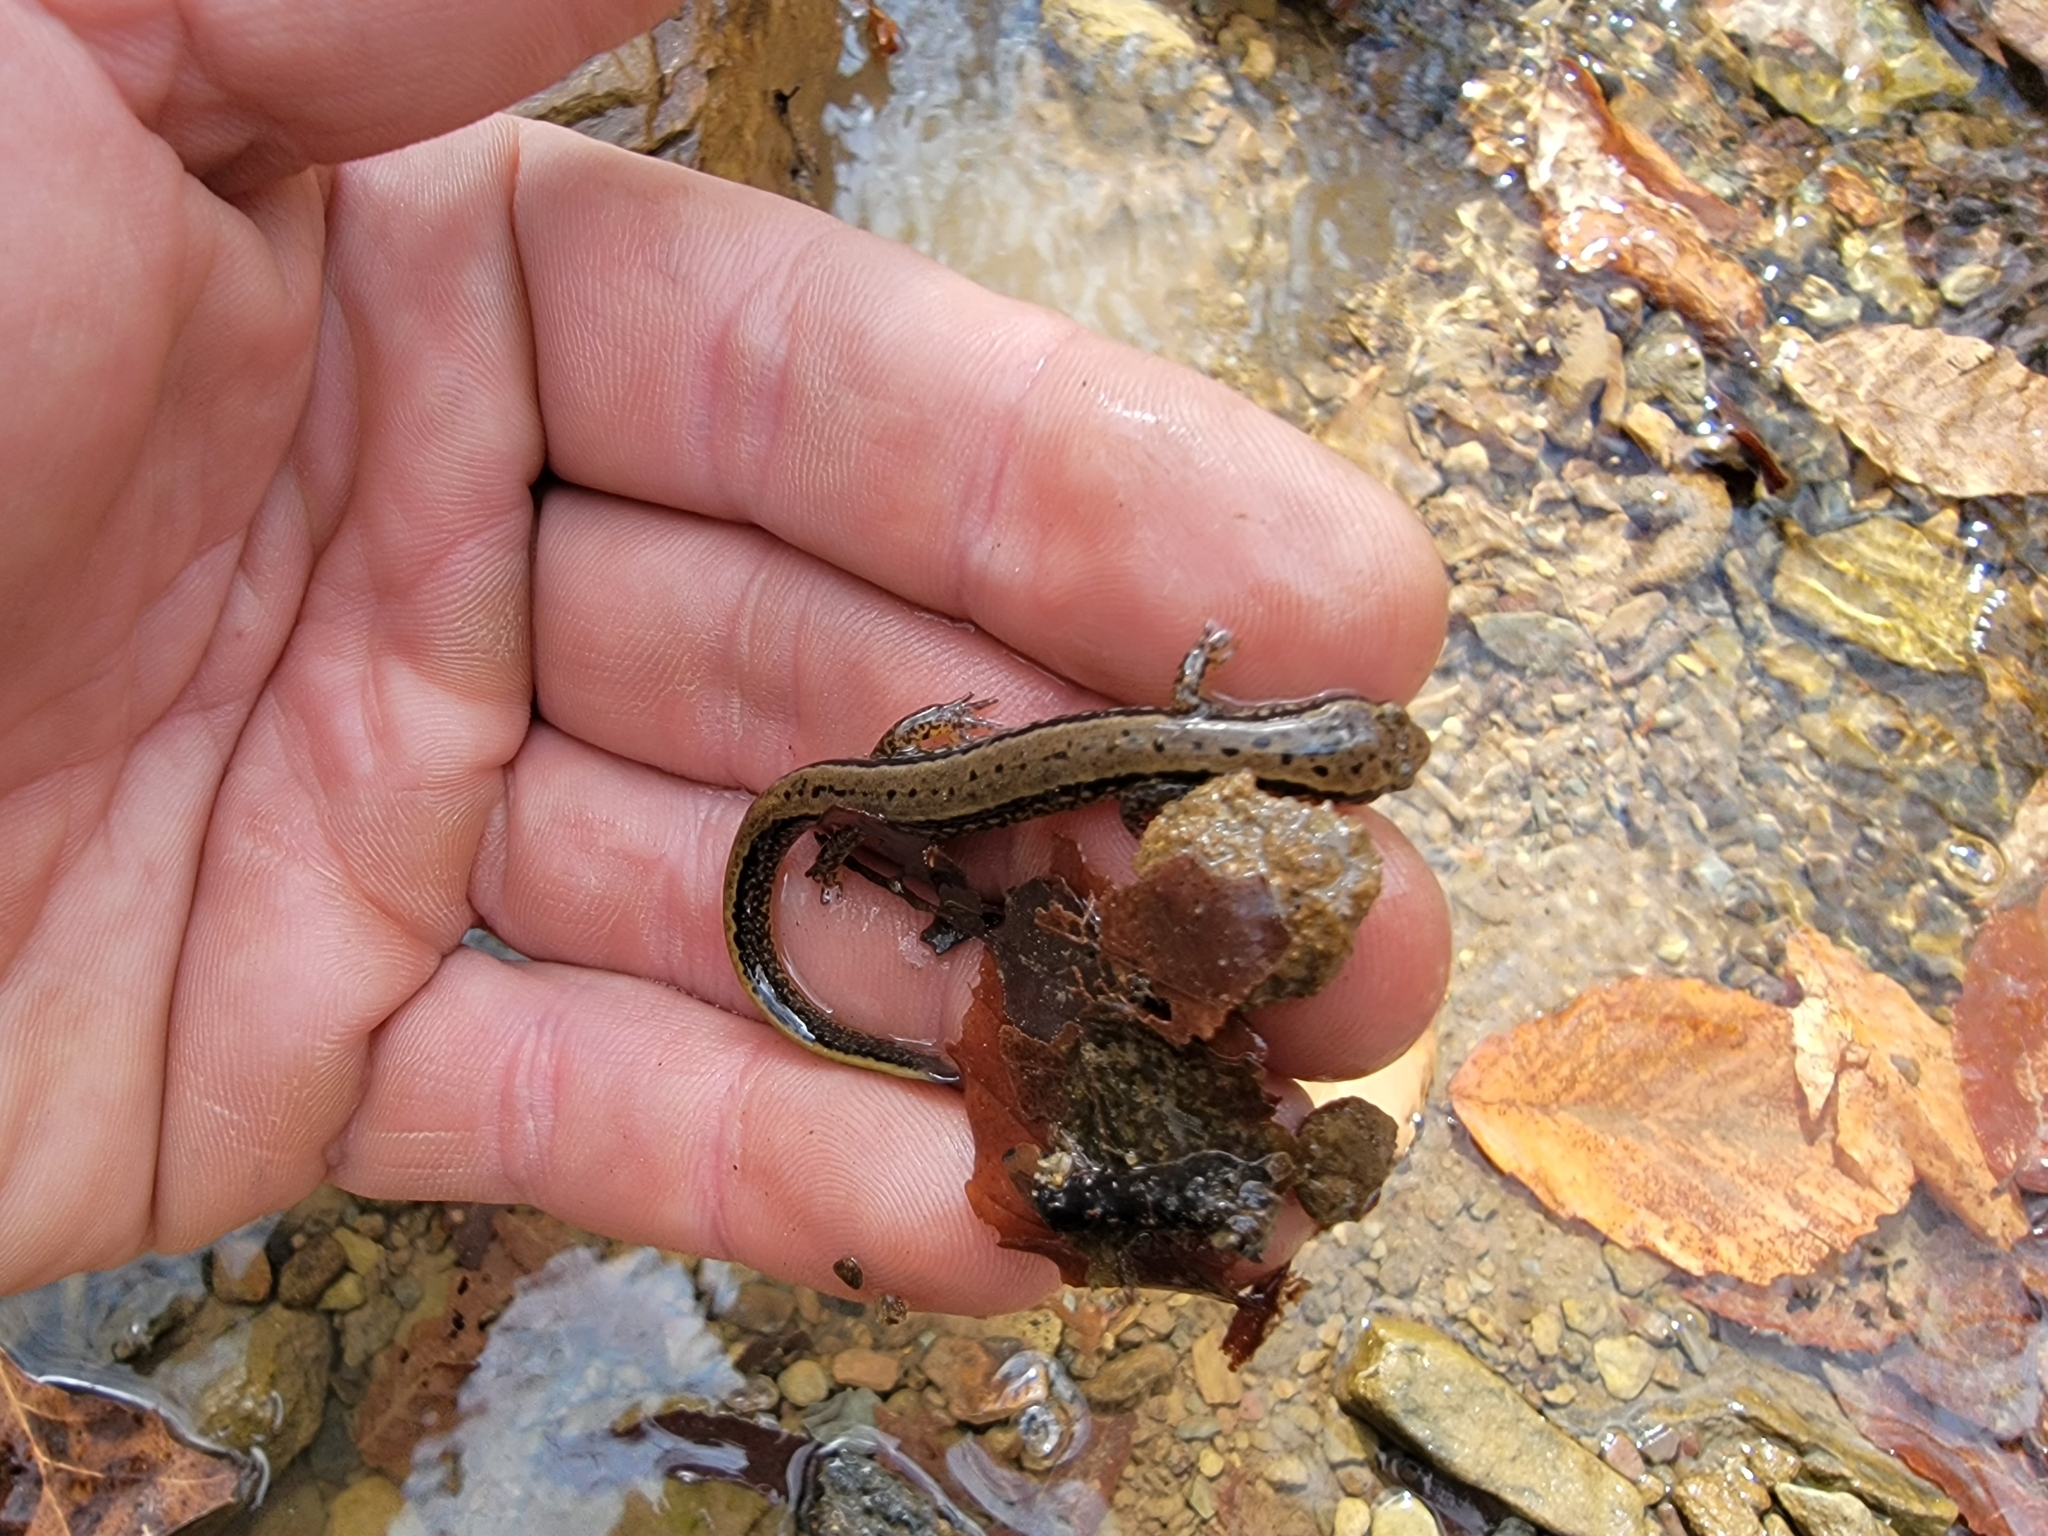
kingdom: Animalia
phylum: Chordata
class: Amphibia
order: Caudata
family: Plethodontidae
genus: Eurycea
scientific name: Eurycea cirrigera
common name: Southern two-lined salamander
